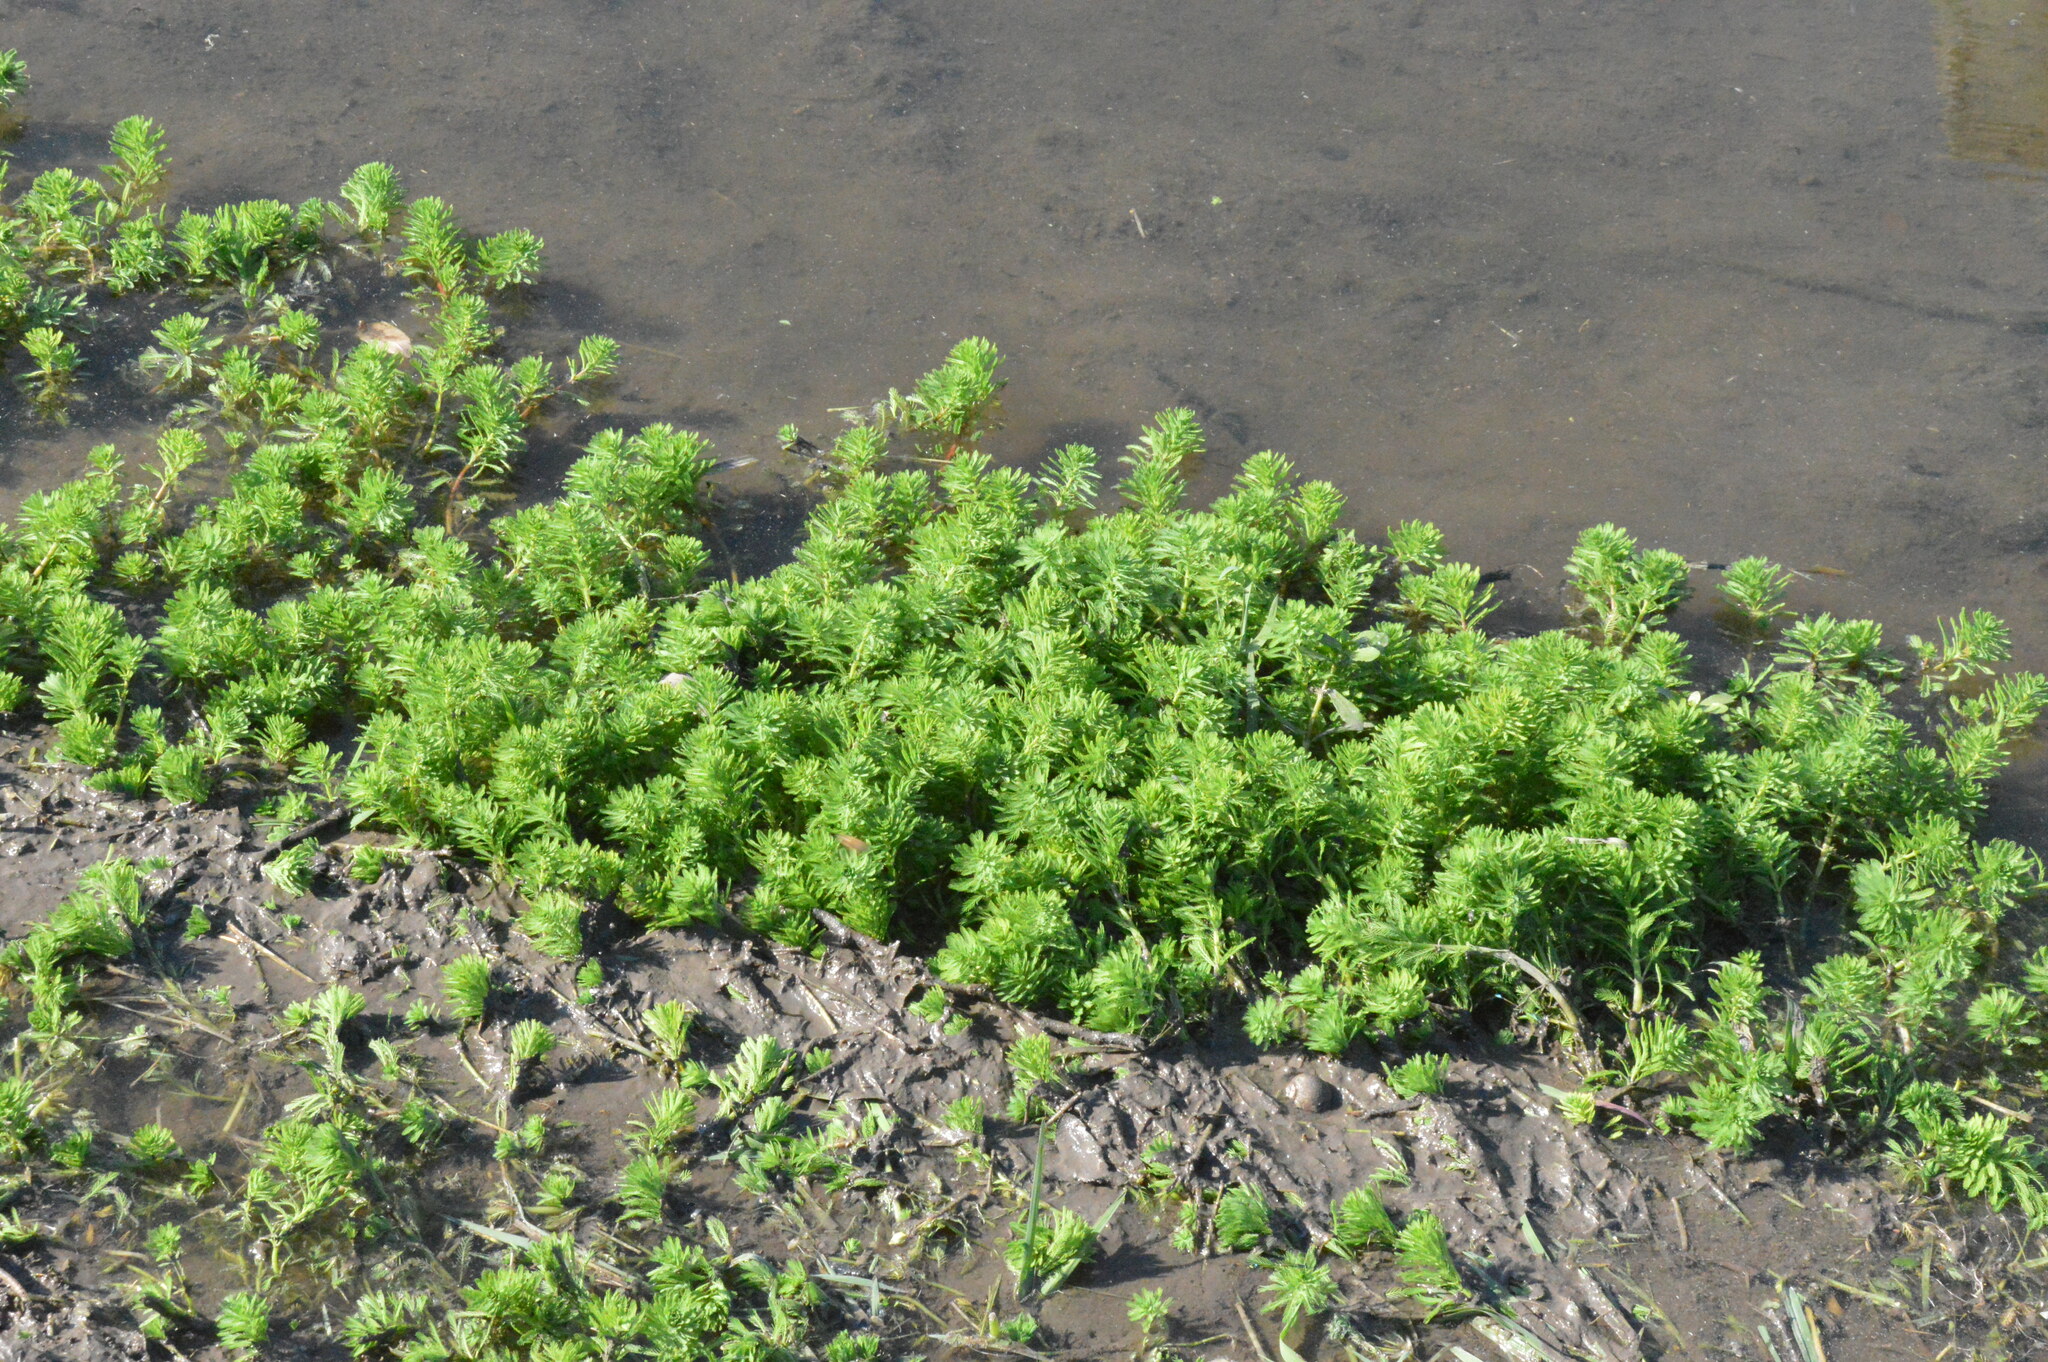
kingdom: Plantae
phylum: Tracheophyta
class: Magnoliopsida
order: Saxifragales
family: Haloragaceae
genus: Myriophyllum
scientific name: Myriophyllum aquaticum
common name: Parrot's feather
